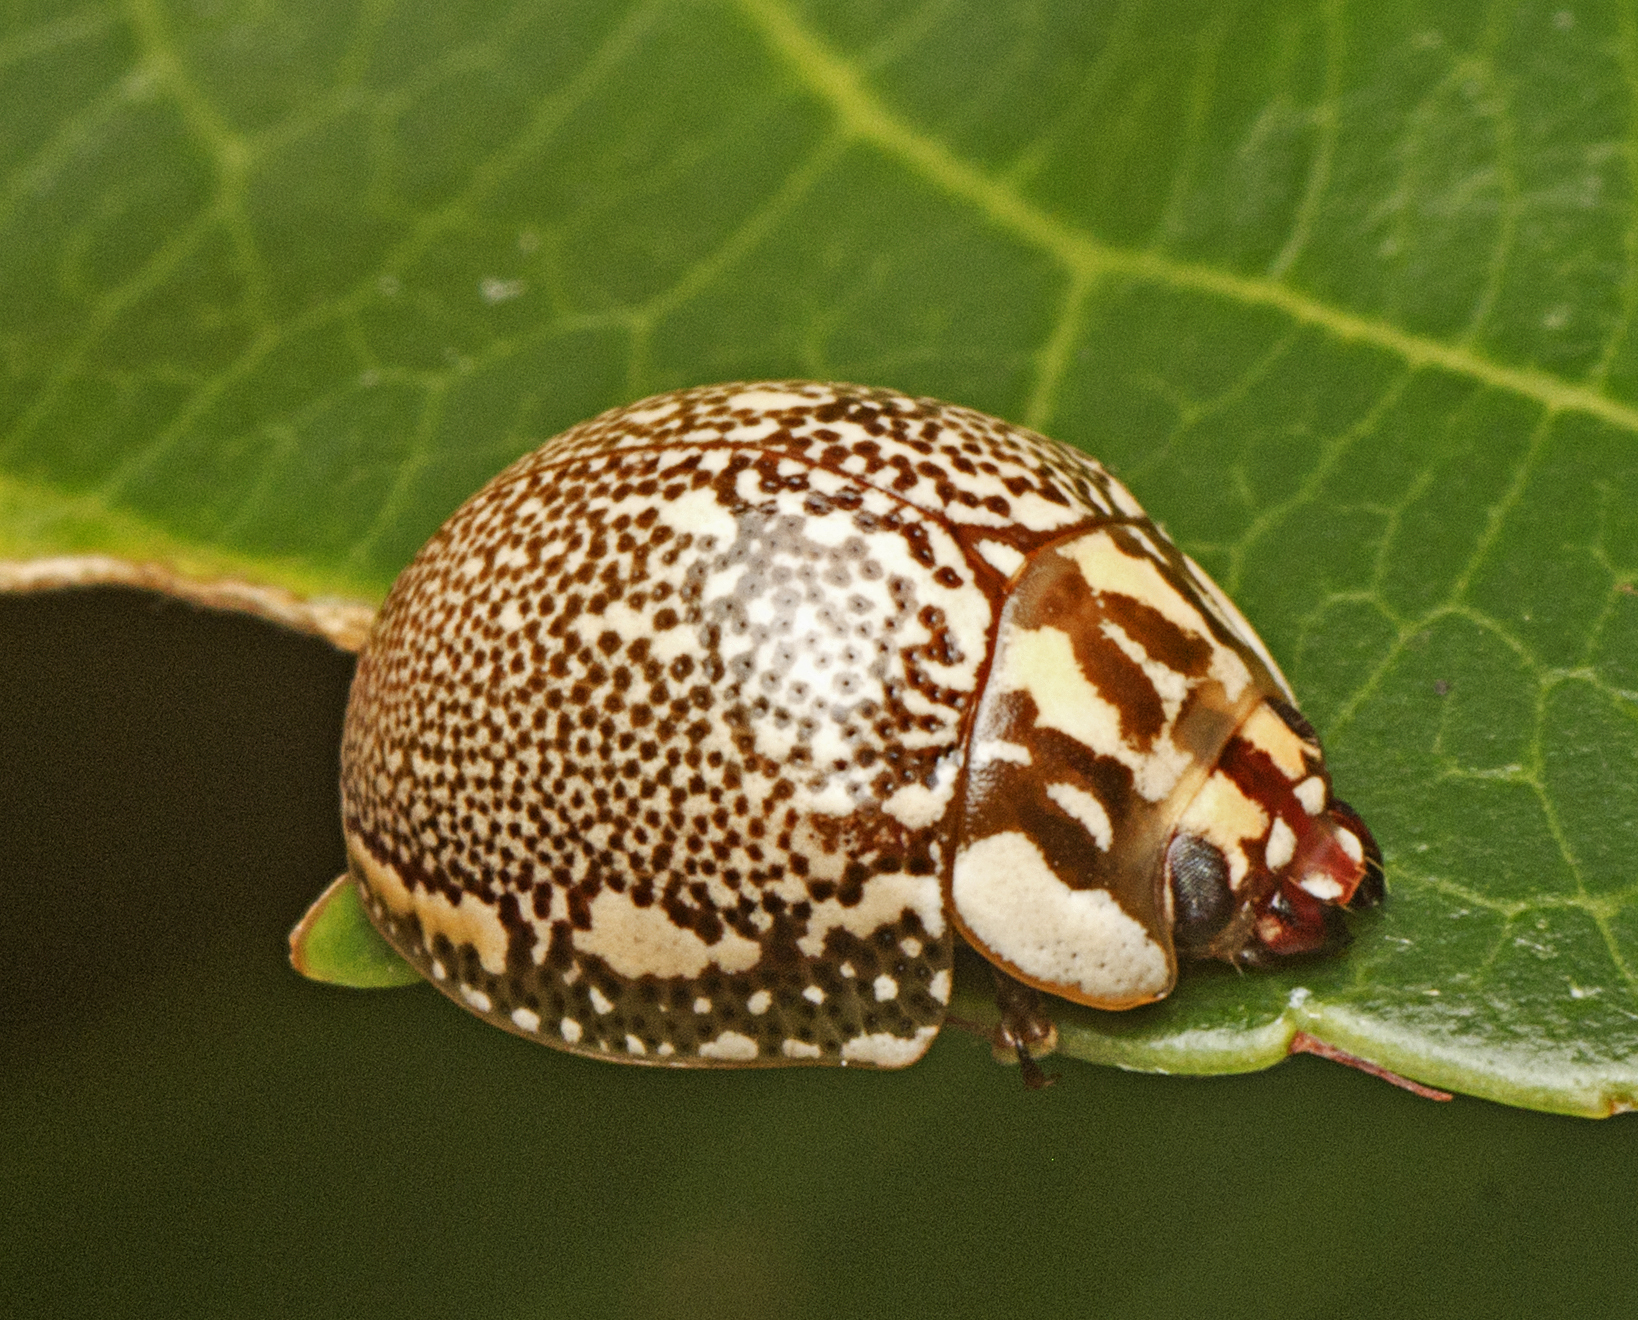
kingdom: Animalia
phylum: Arthropoda
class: Insecta
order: Coleoptera
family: Chrysomelidae
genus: Paropsis
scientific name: Paropsis sospita
